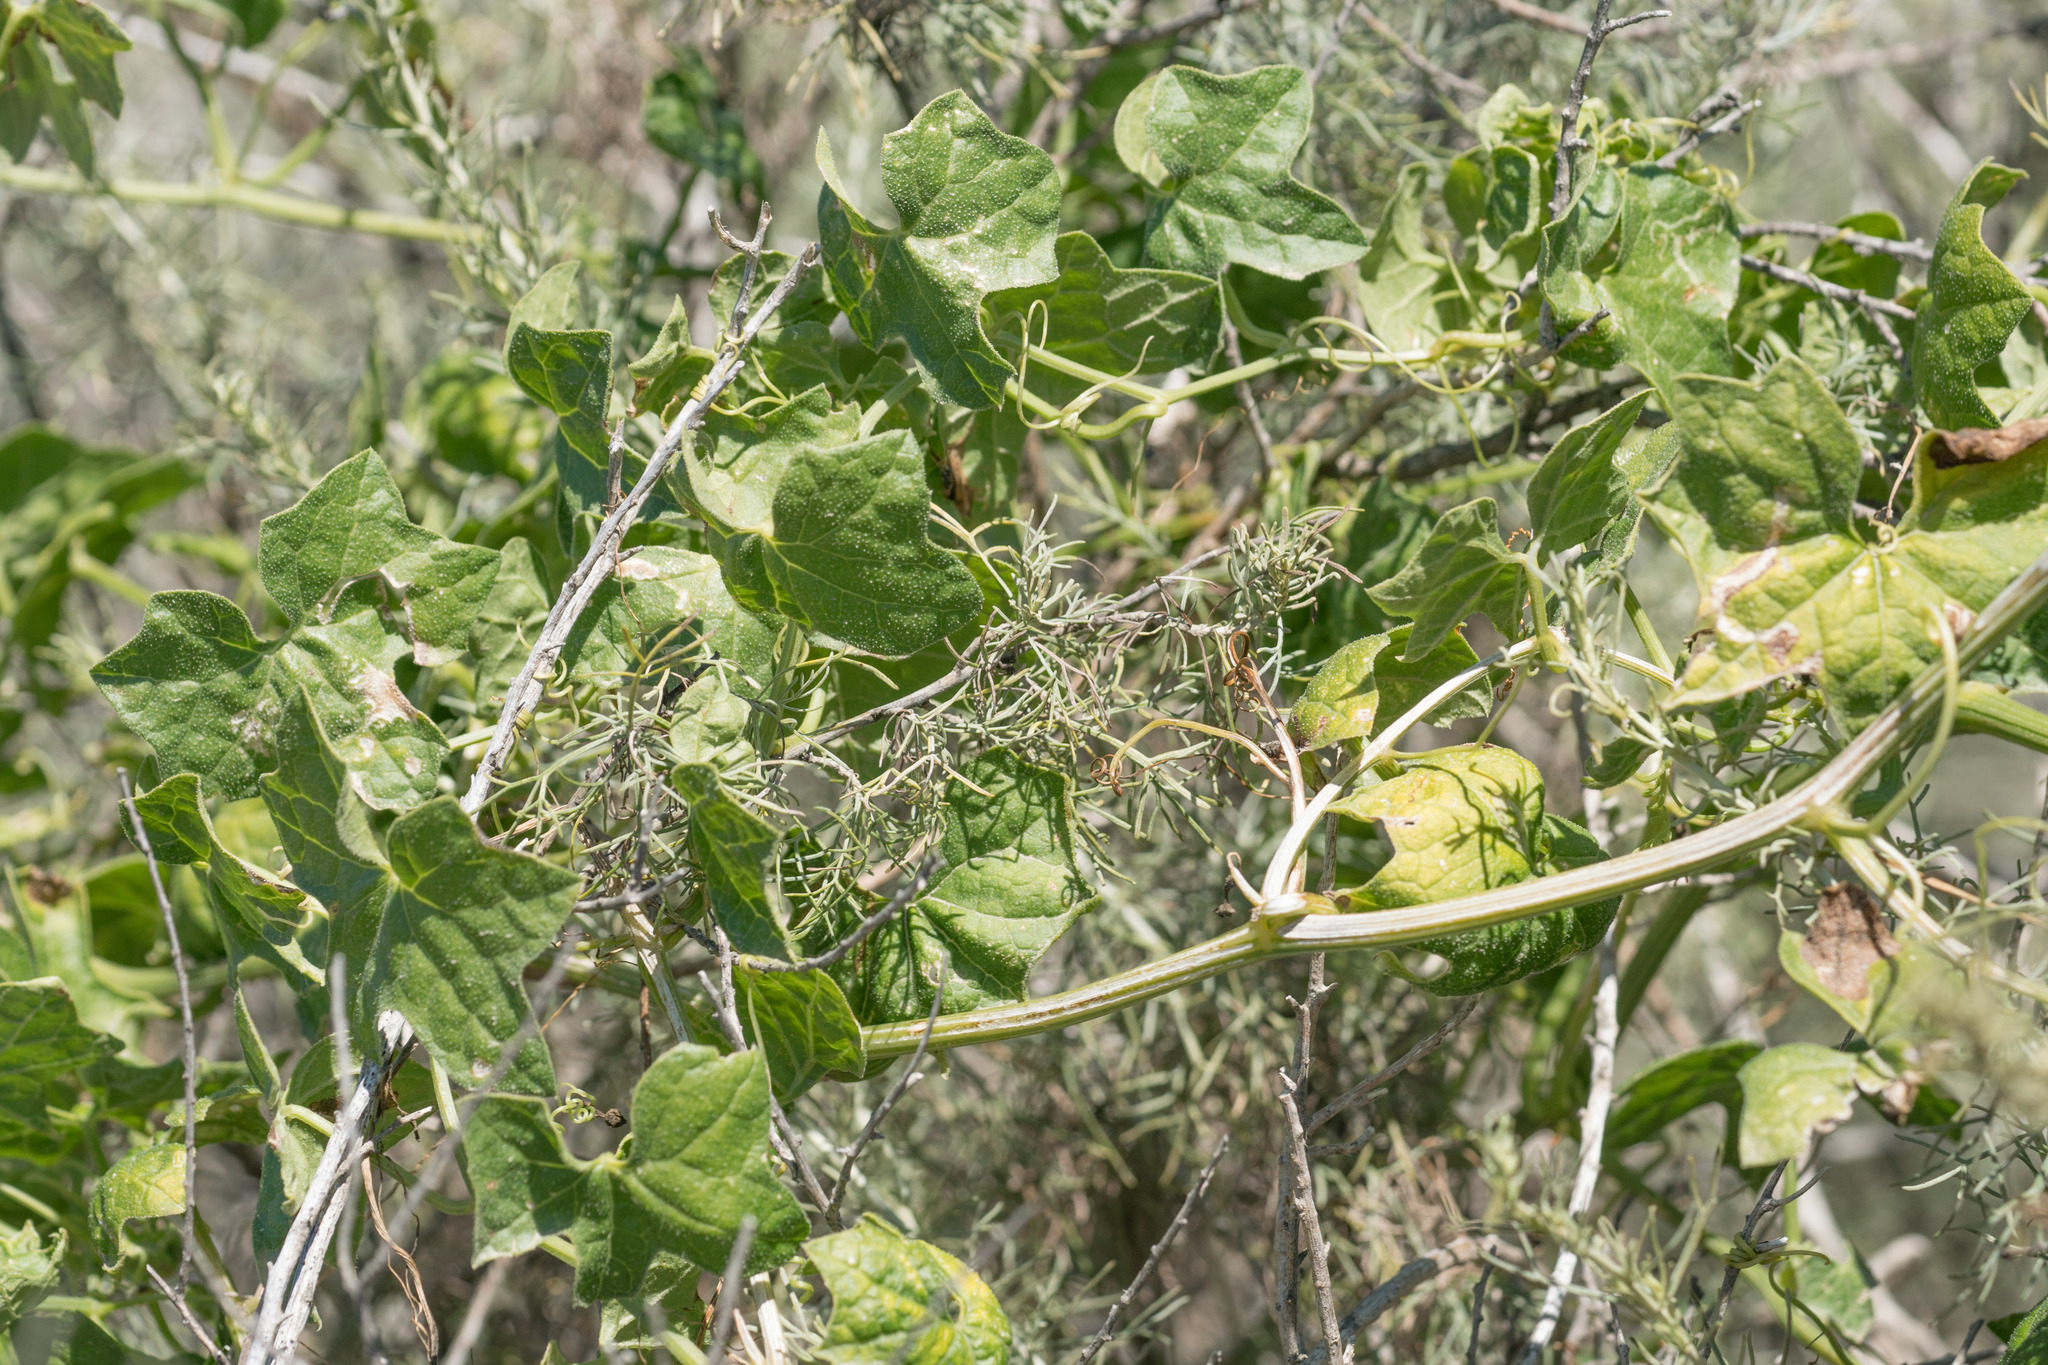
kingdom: Plantae
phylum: Tracheophyta
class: Magnoliopsida
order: Cucurbitales
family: Cucurbitaceae
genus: Marah
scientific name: Marah macrocarpa
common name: Cucamonga manroot
